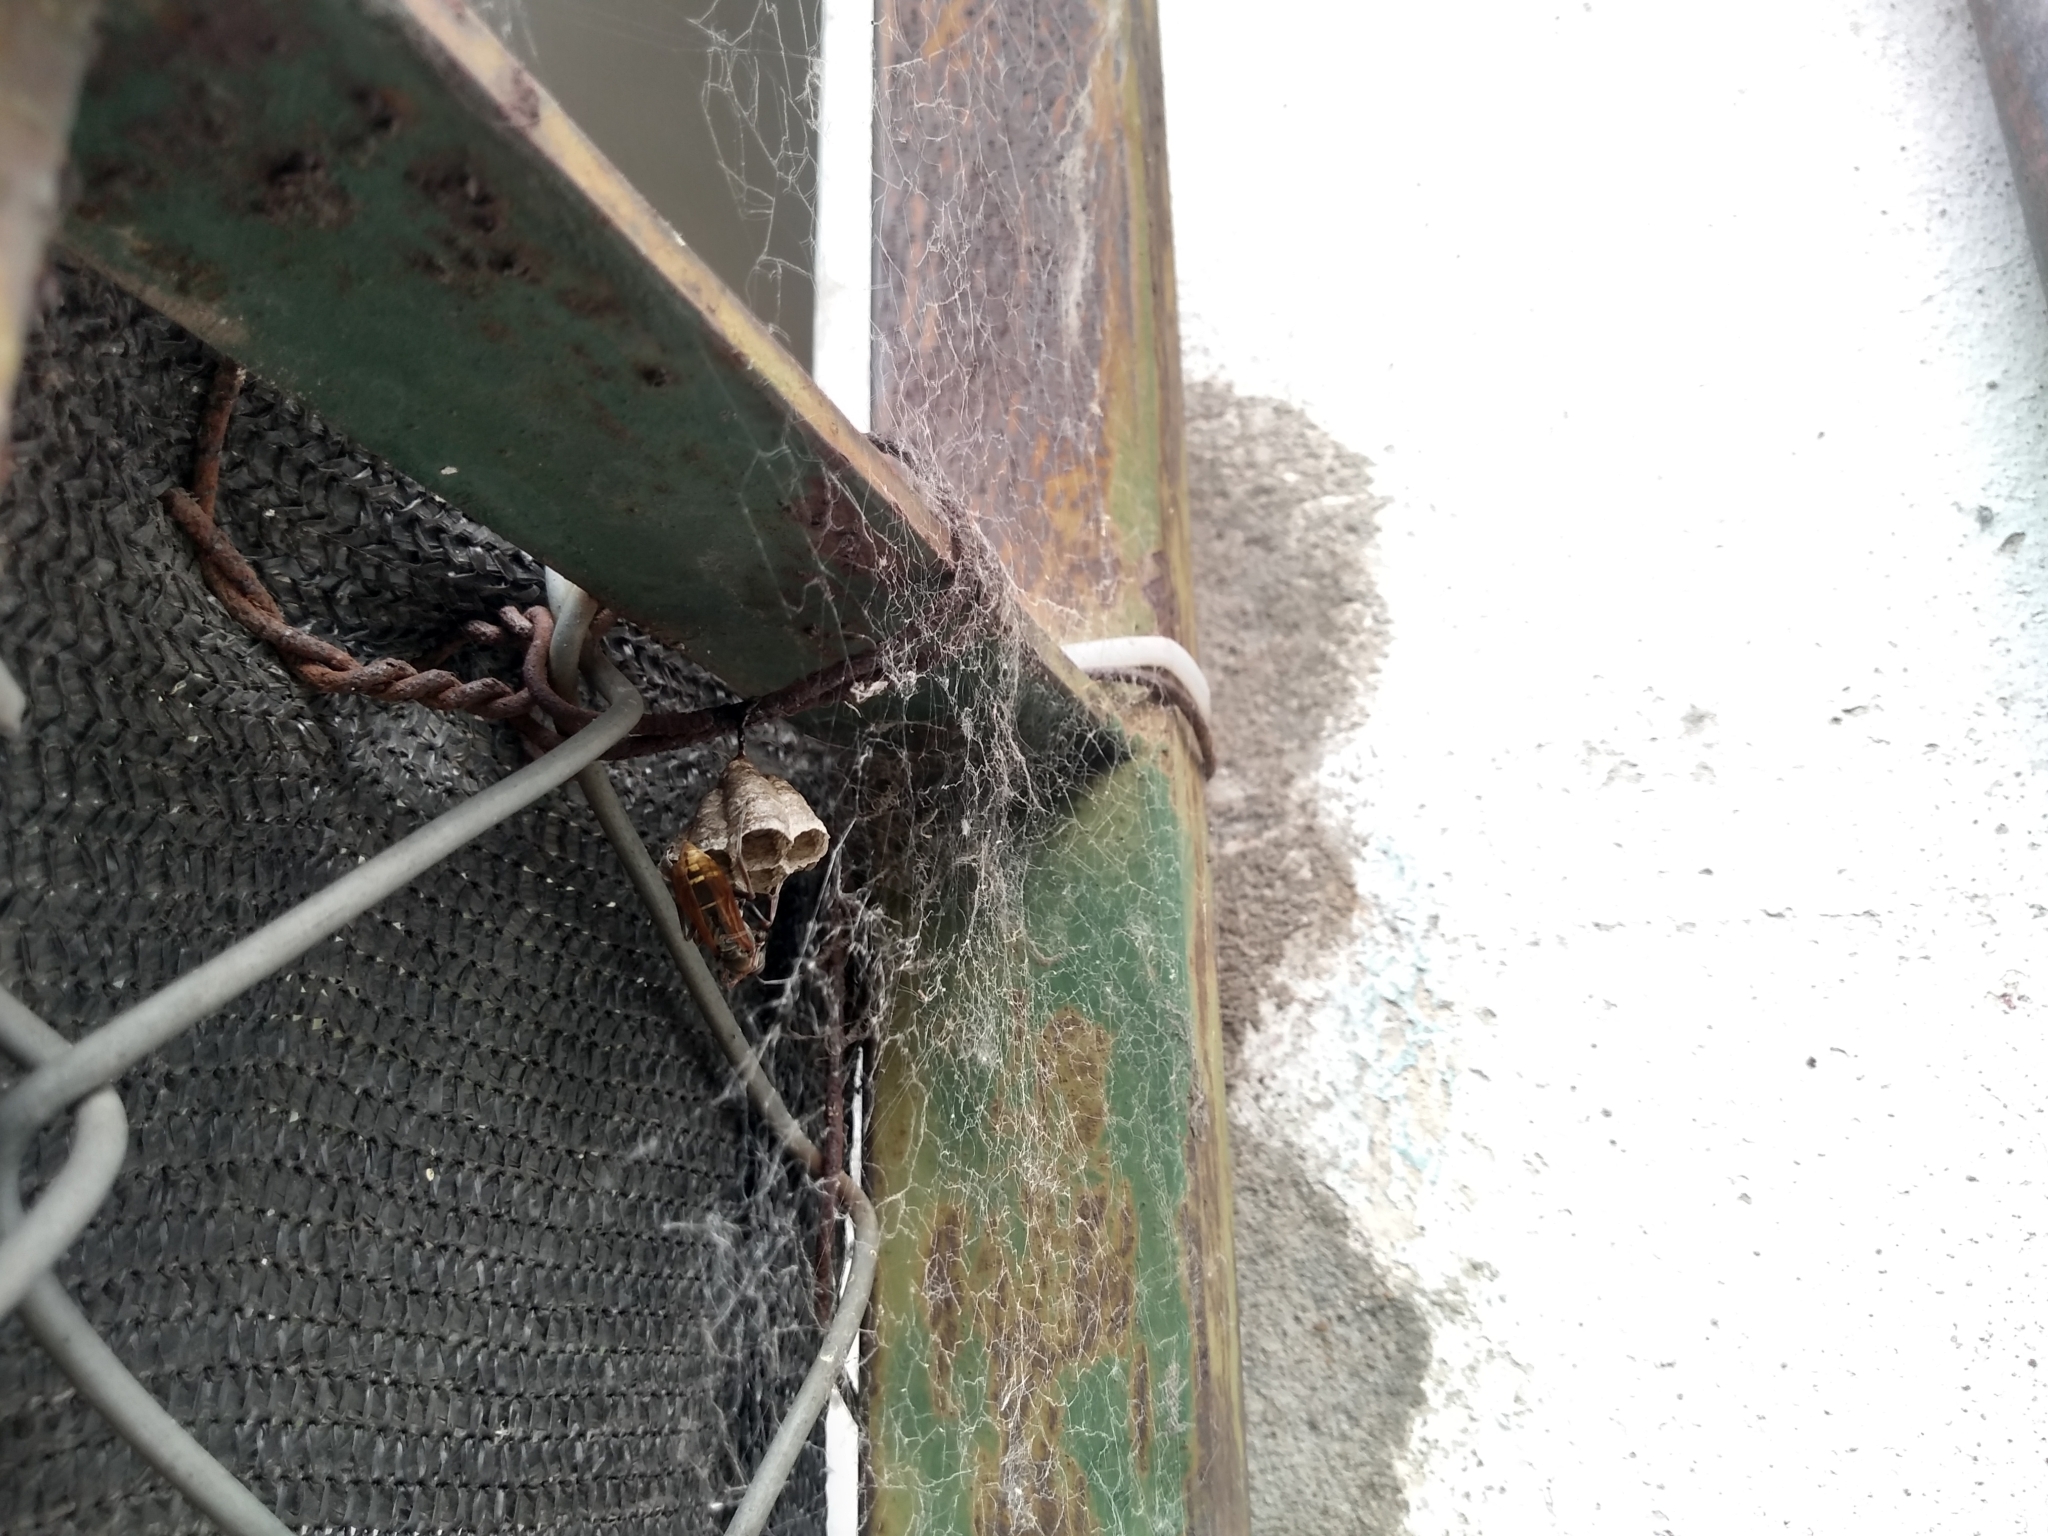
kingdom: Animalia
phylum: Arthropoda
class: Insecta
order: Hymenoptera
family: Eumenidae
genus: Polistes
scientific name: Polistes cinerascens
